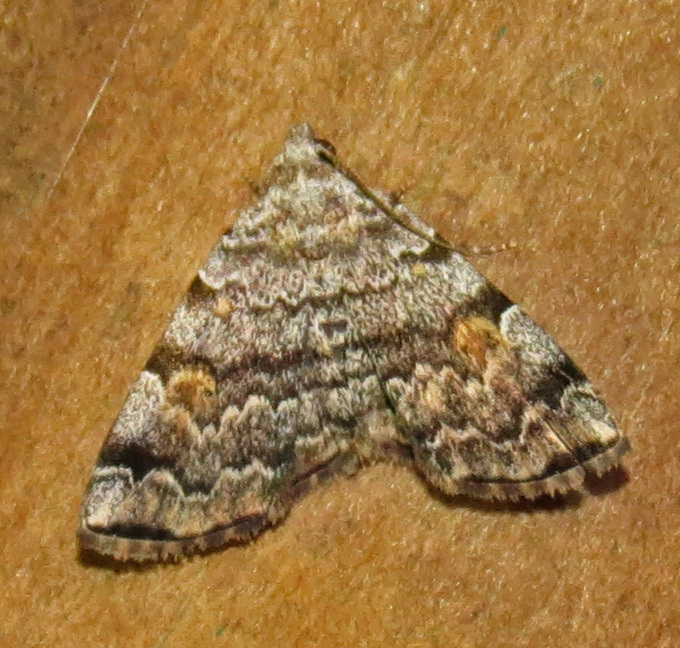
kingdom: Animalia
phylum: Arthropoda
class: Insecta
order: Lepidoptera
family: Erebidae
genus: Idia
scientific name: Idia americalis
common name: American idia moth
